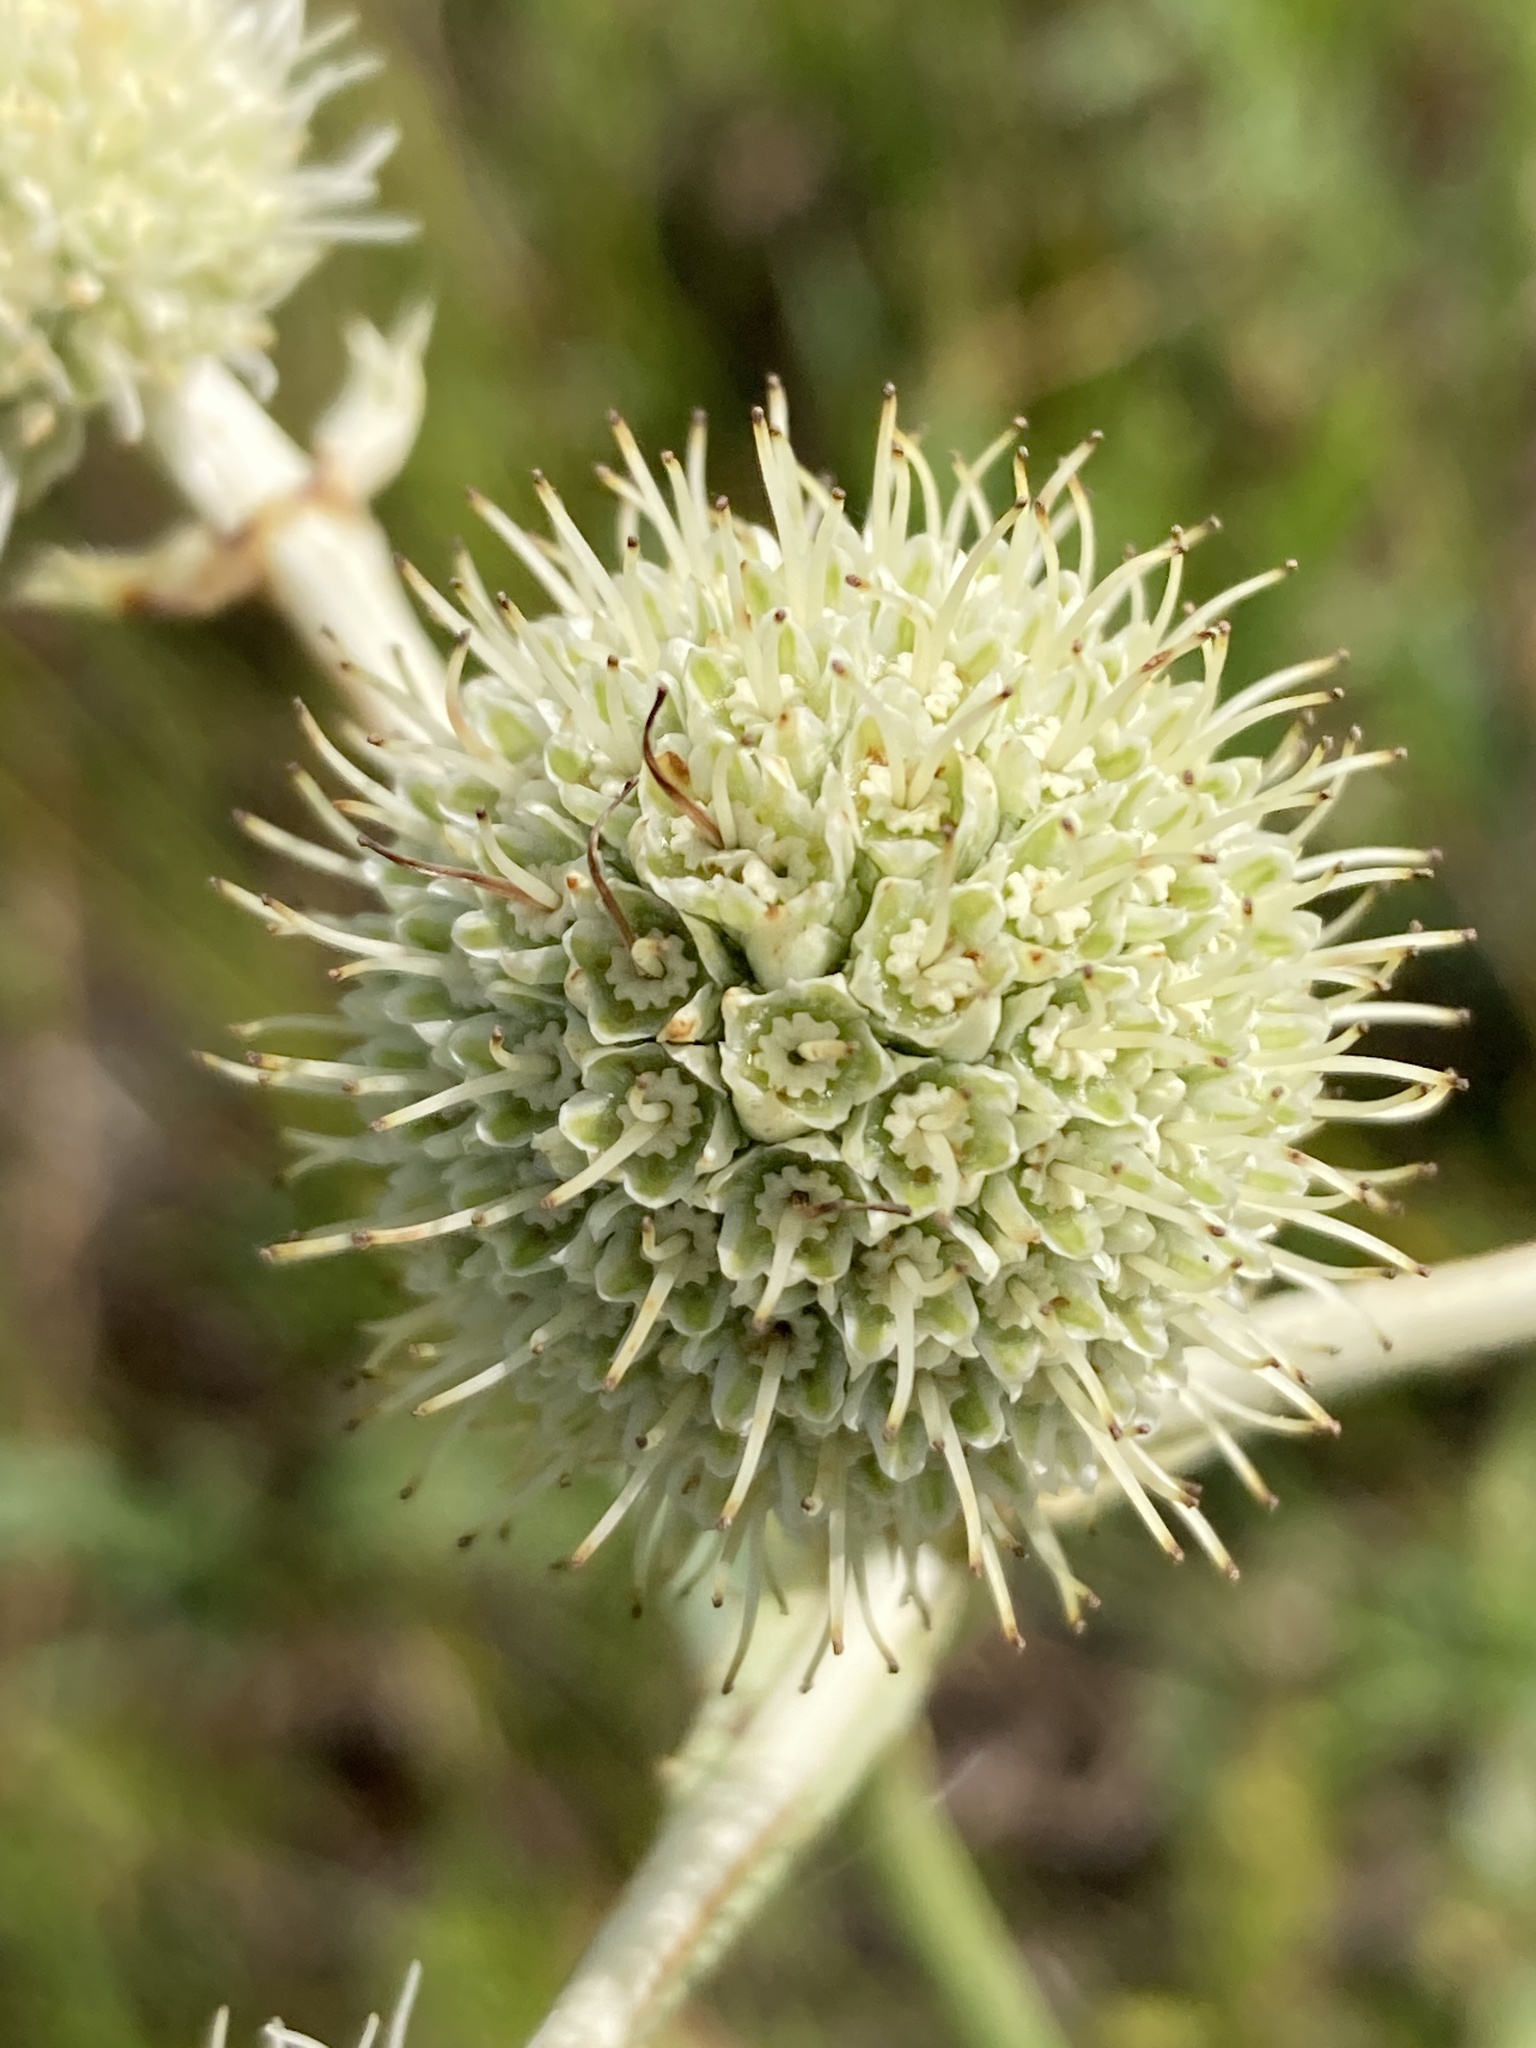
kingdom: Plantae
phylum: Tracheophyta
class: Magnoliopsida
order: Apiales
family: Apiaceae
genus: Eryngium
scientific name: Eryngium yuccifolium
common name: Button eryngo
